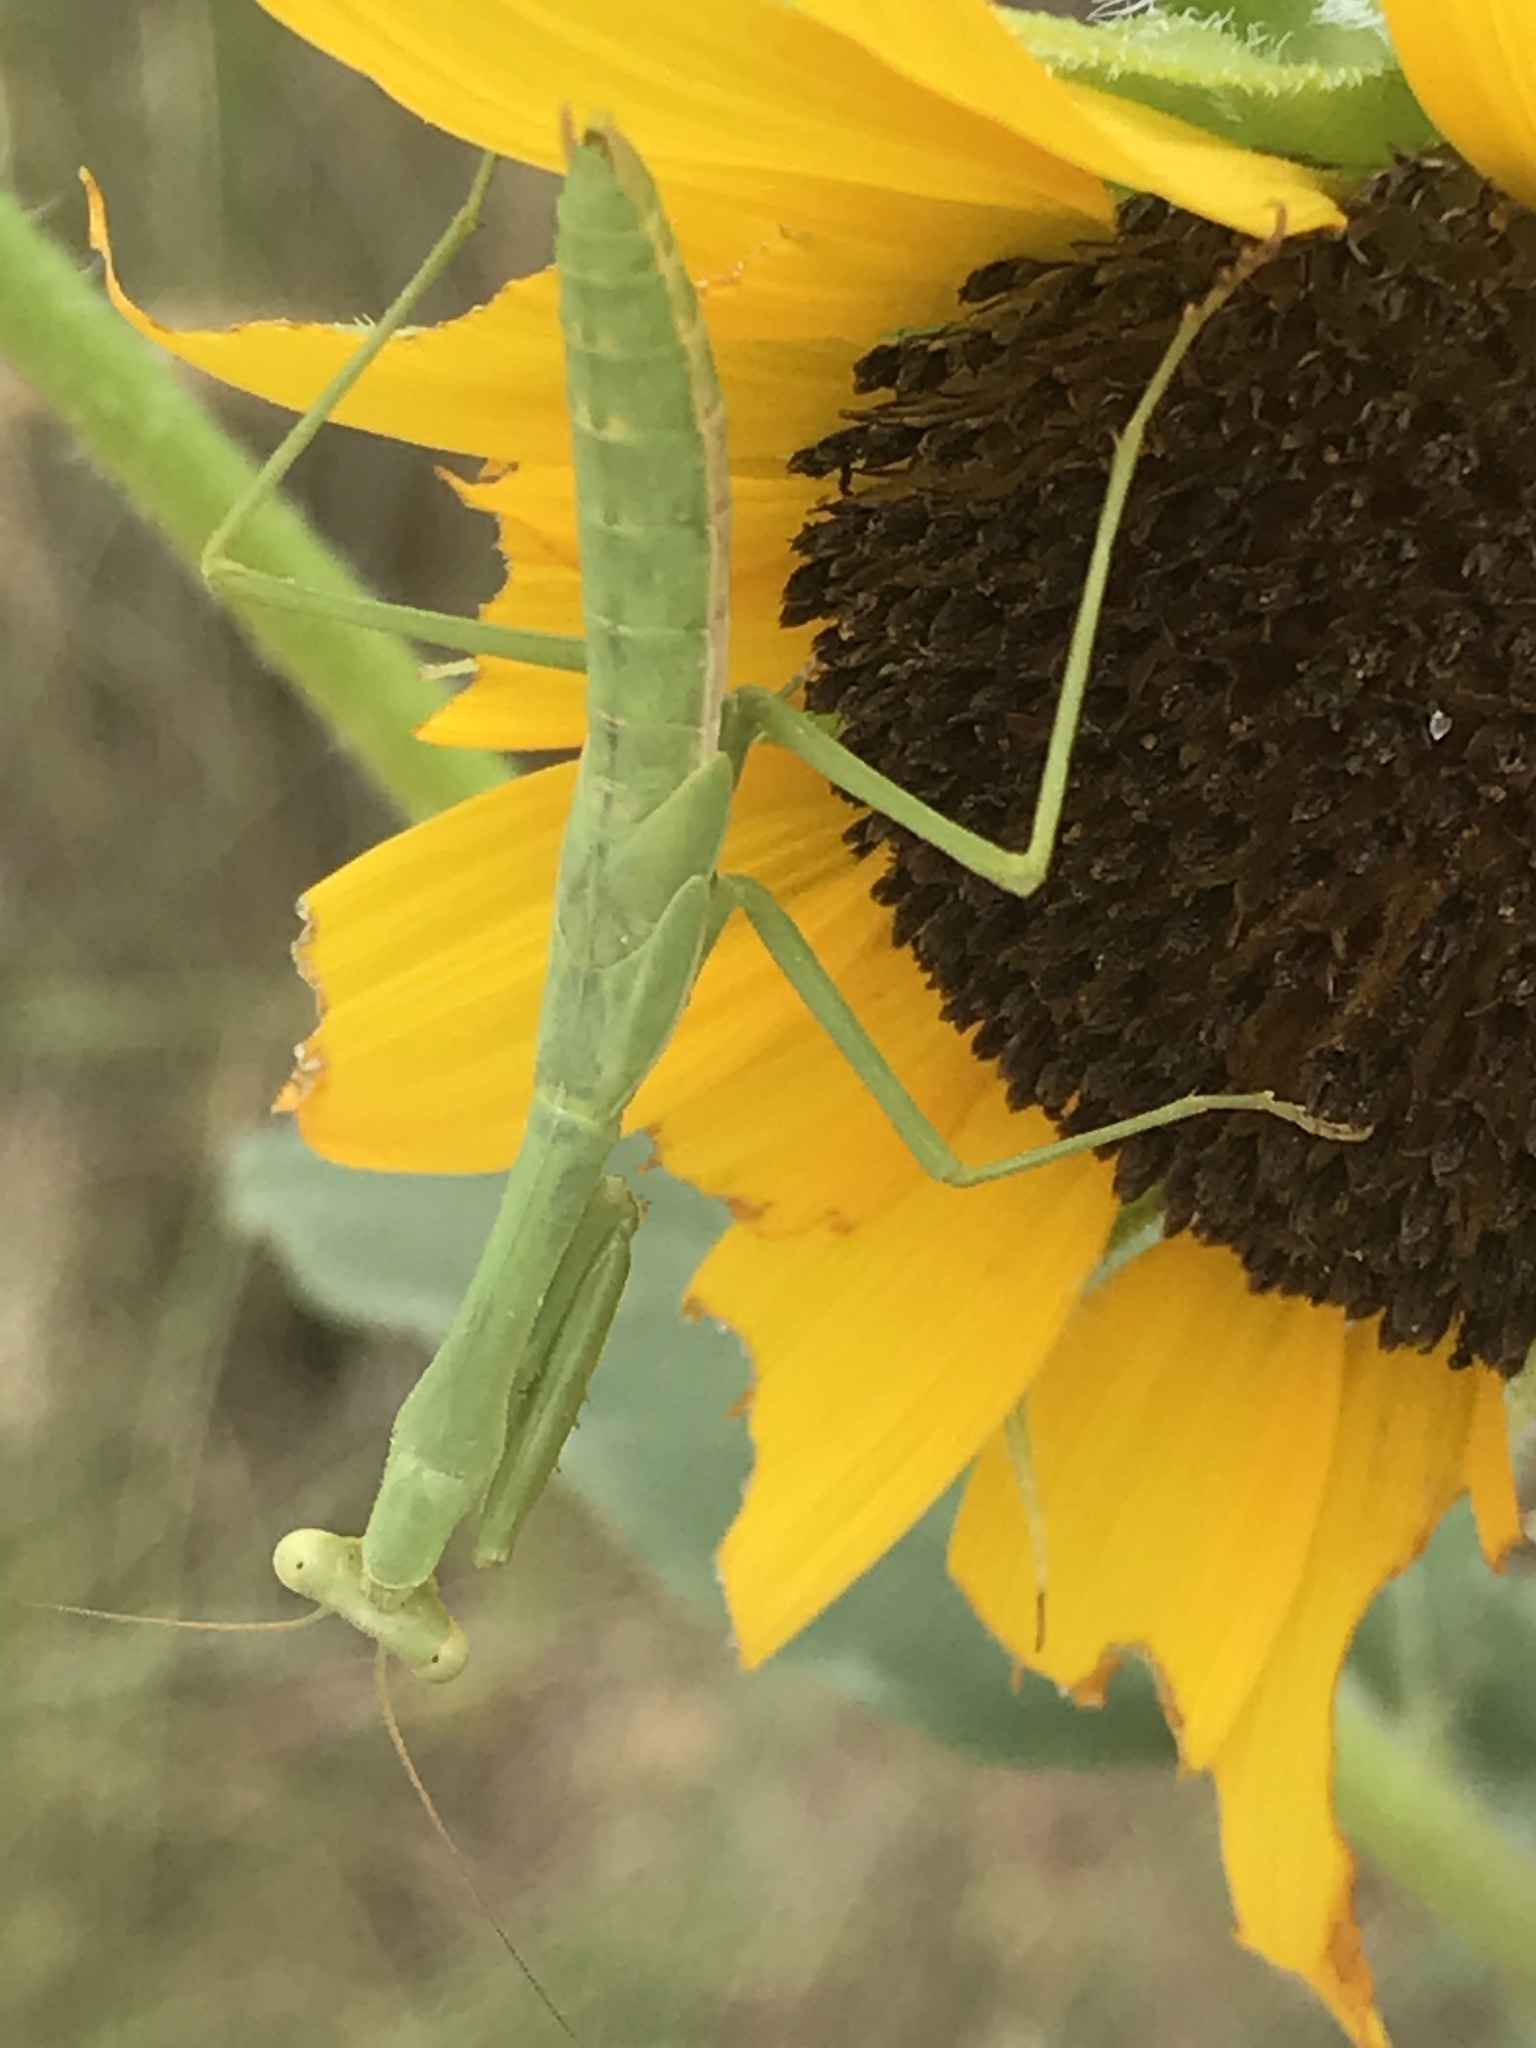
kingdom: Animalia
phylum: Arthropoda
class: Insecta
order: Mantodea
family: Mantidae
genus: Stagmomantis
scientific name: Stagmomantis carolina
